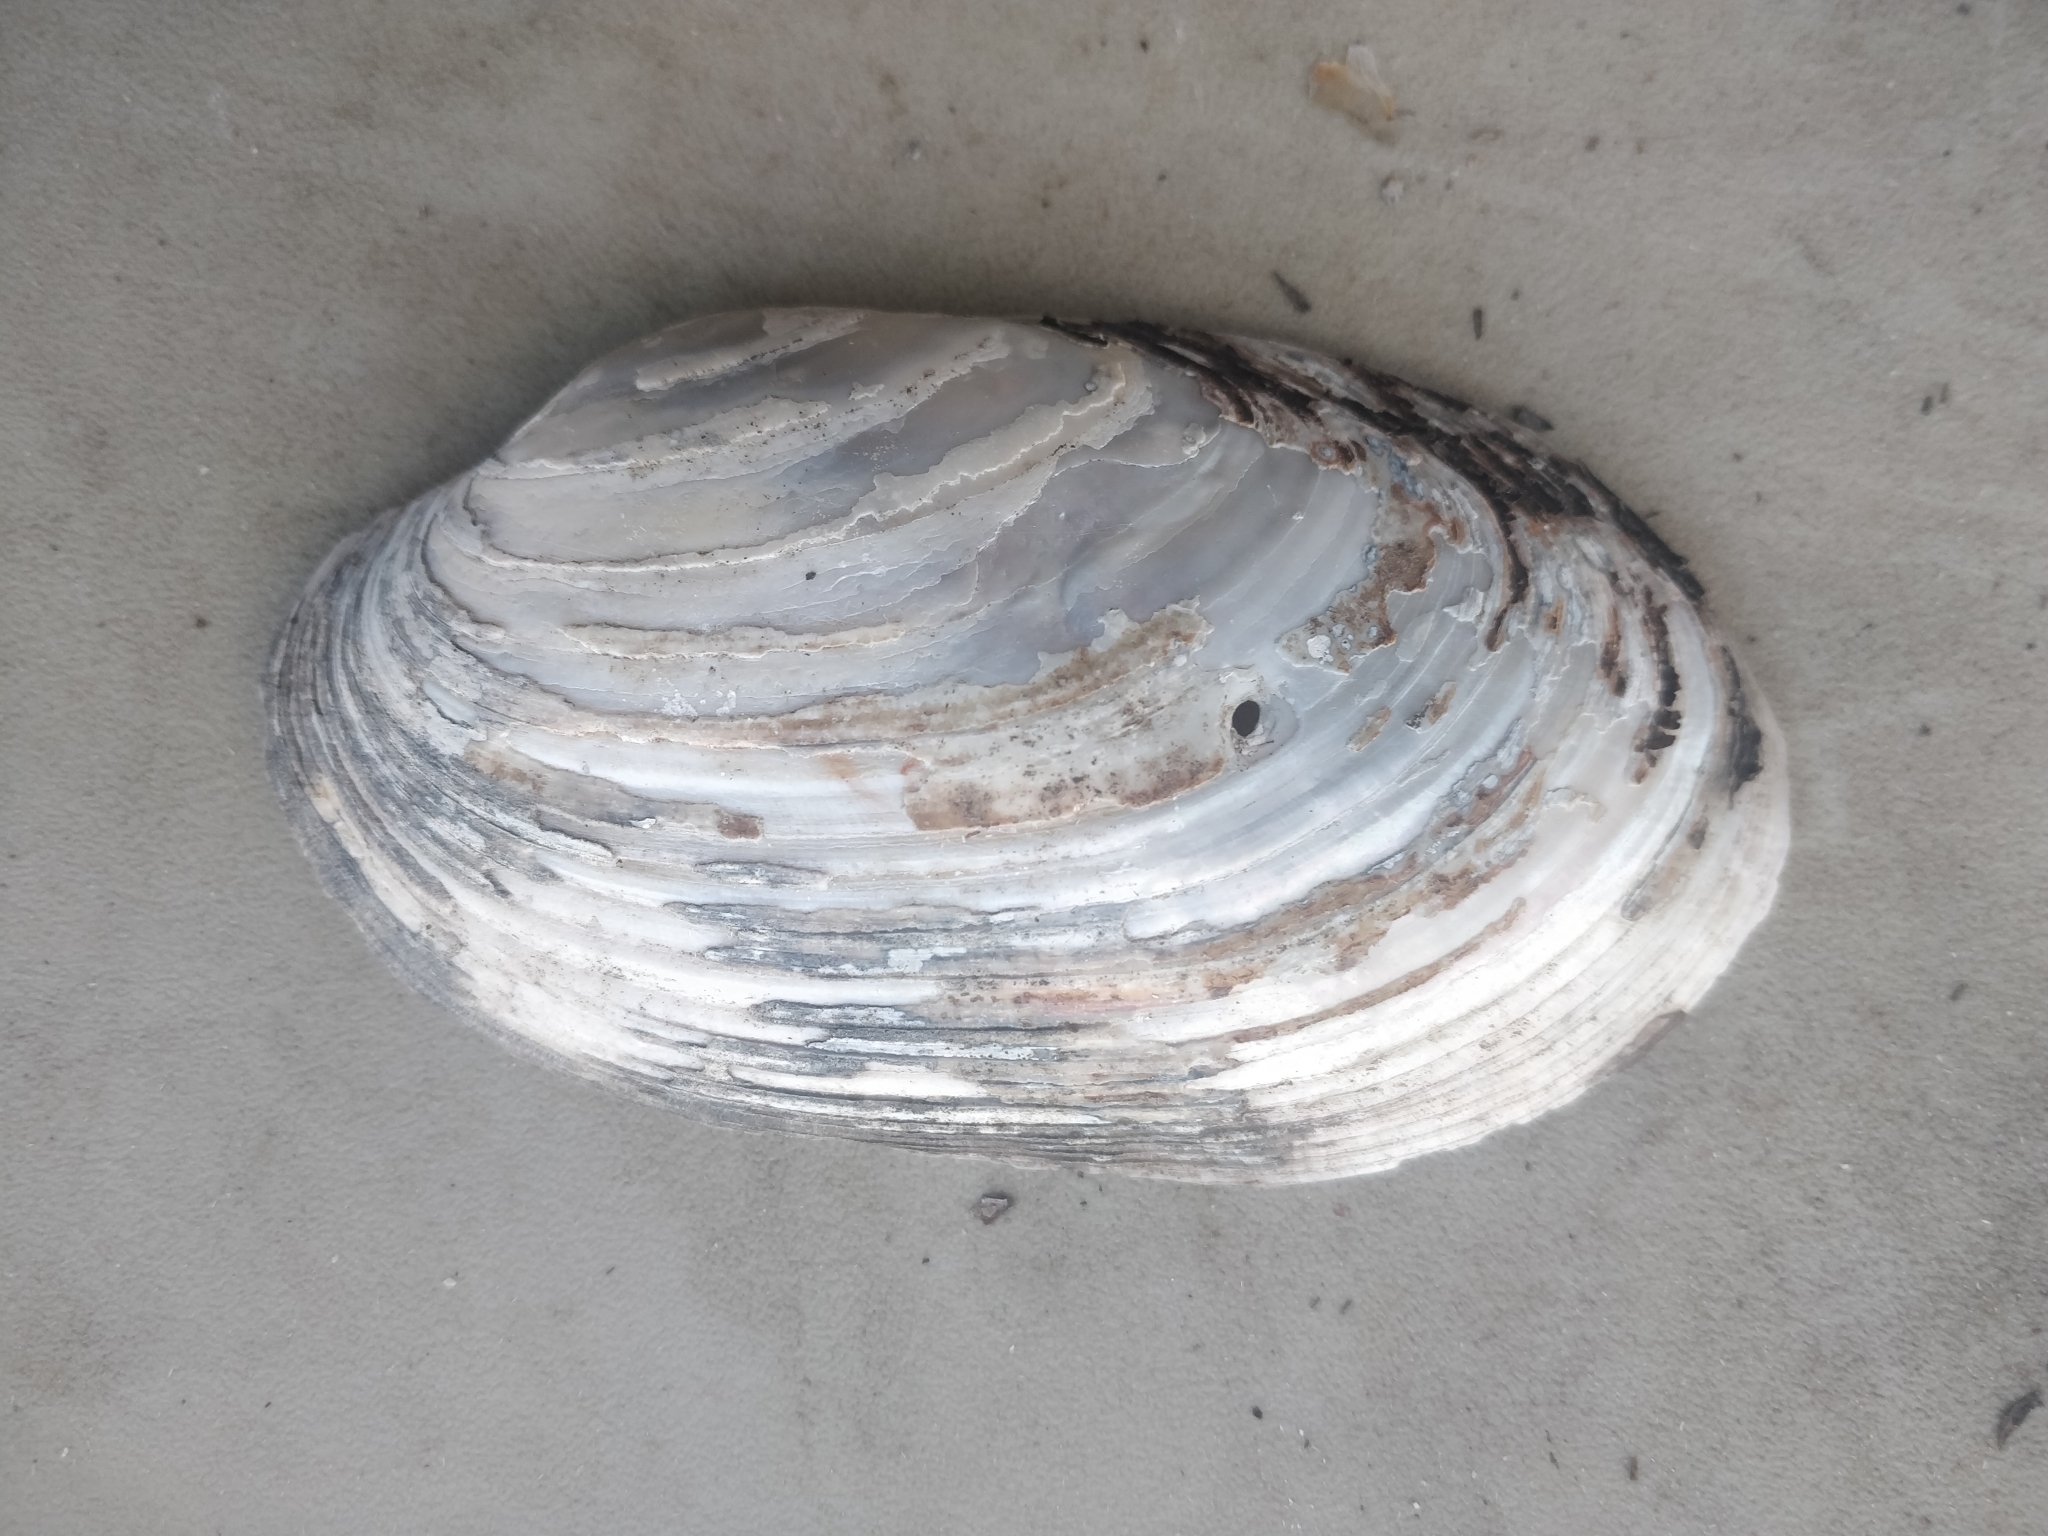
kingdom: Animalia
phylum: Mollusca
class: Bivalvia
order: Unionida
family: Unionidae
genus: Lampsilis
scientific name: Lampsilis siliquoidea
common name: Fatmucket
